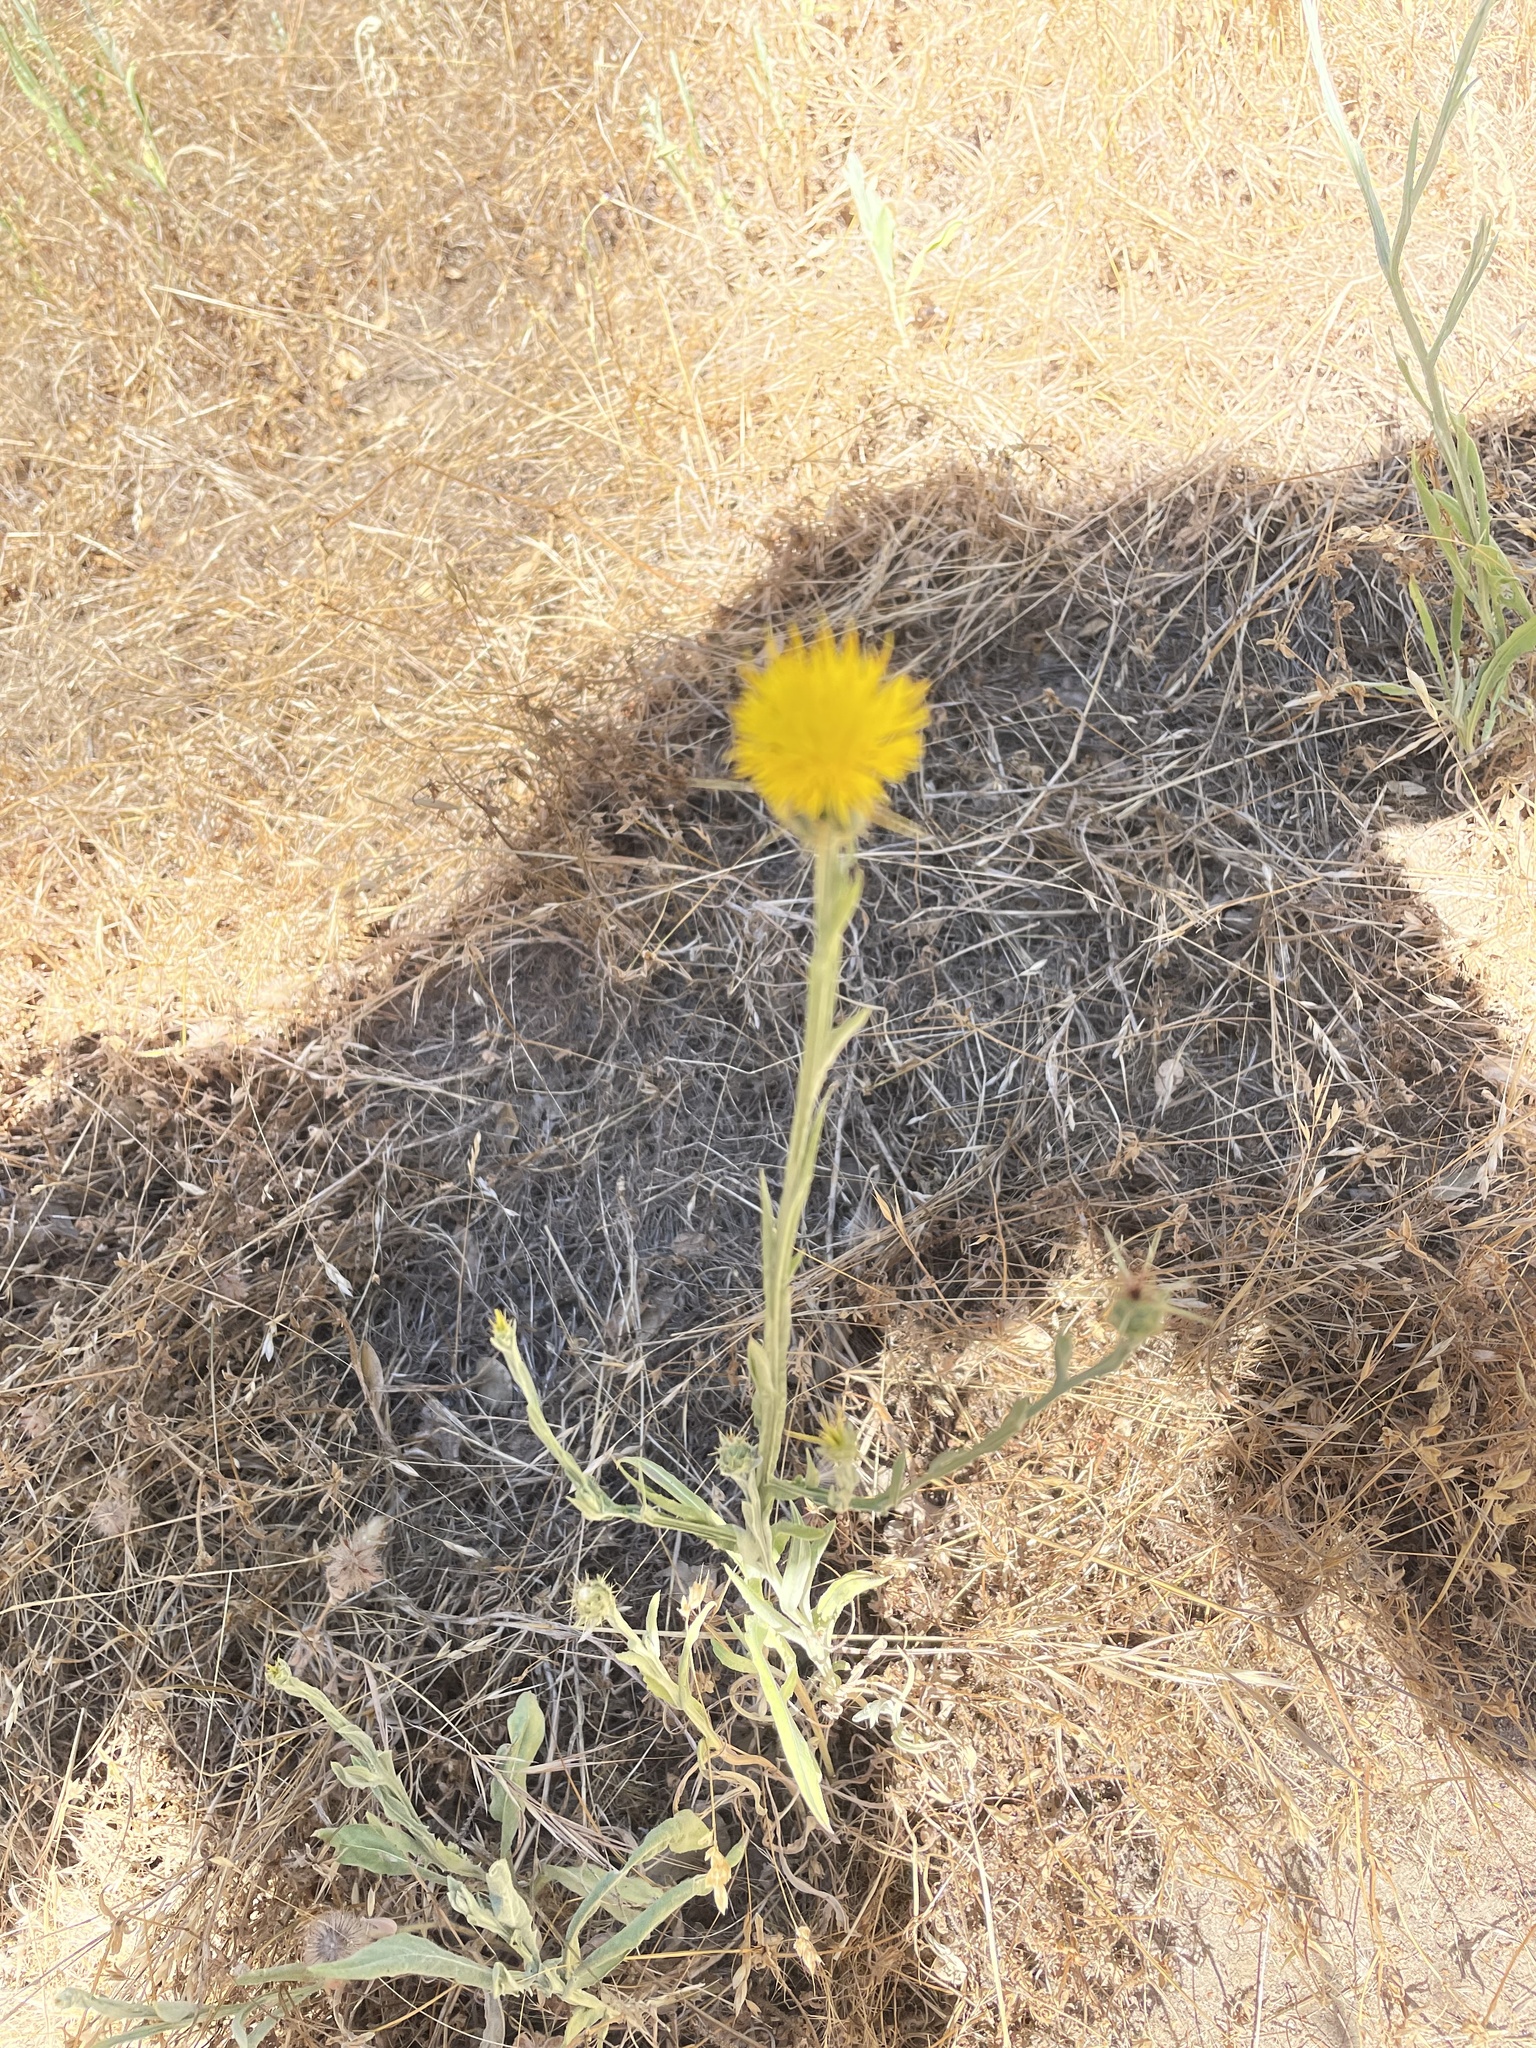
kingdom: Plantae
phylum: Tracheophyta
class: Magnoliopsida
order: Asterales
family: Asteraceae
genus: Centaurea
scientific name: Centaurea solstitialis
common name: Yellow star-thistle
